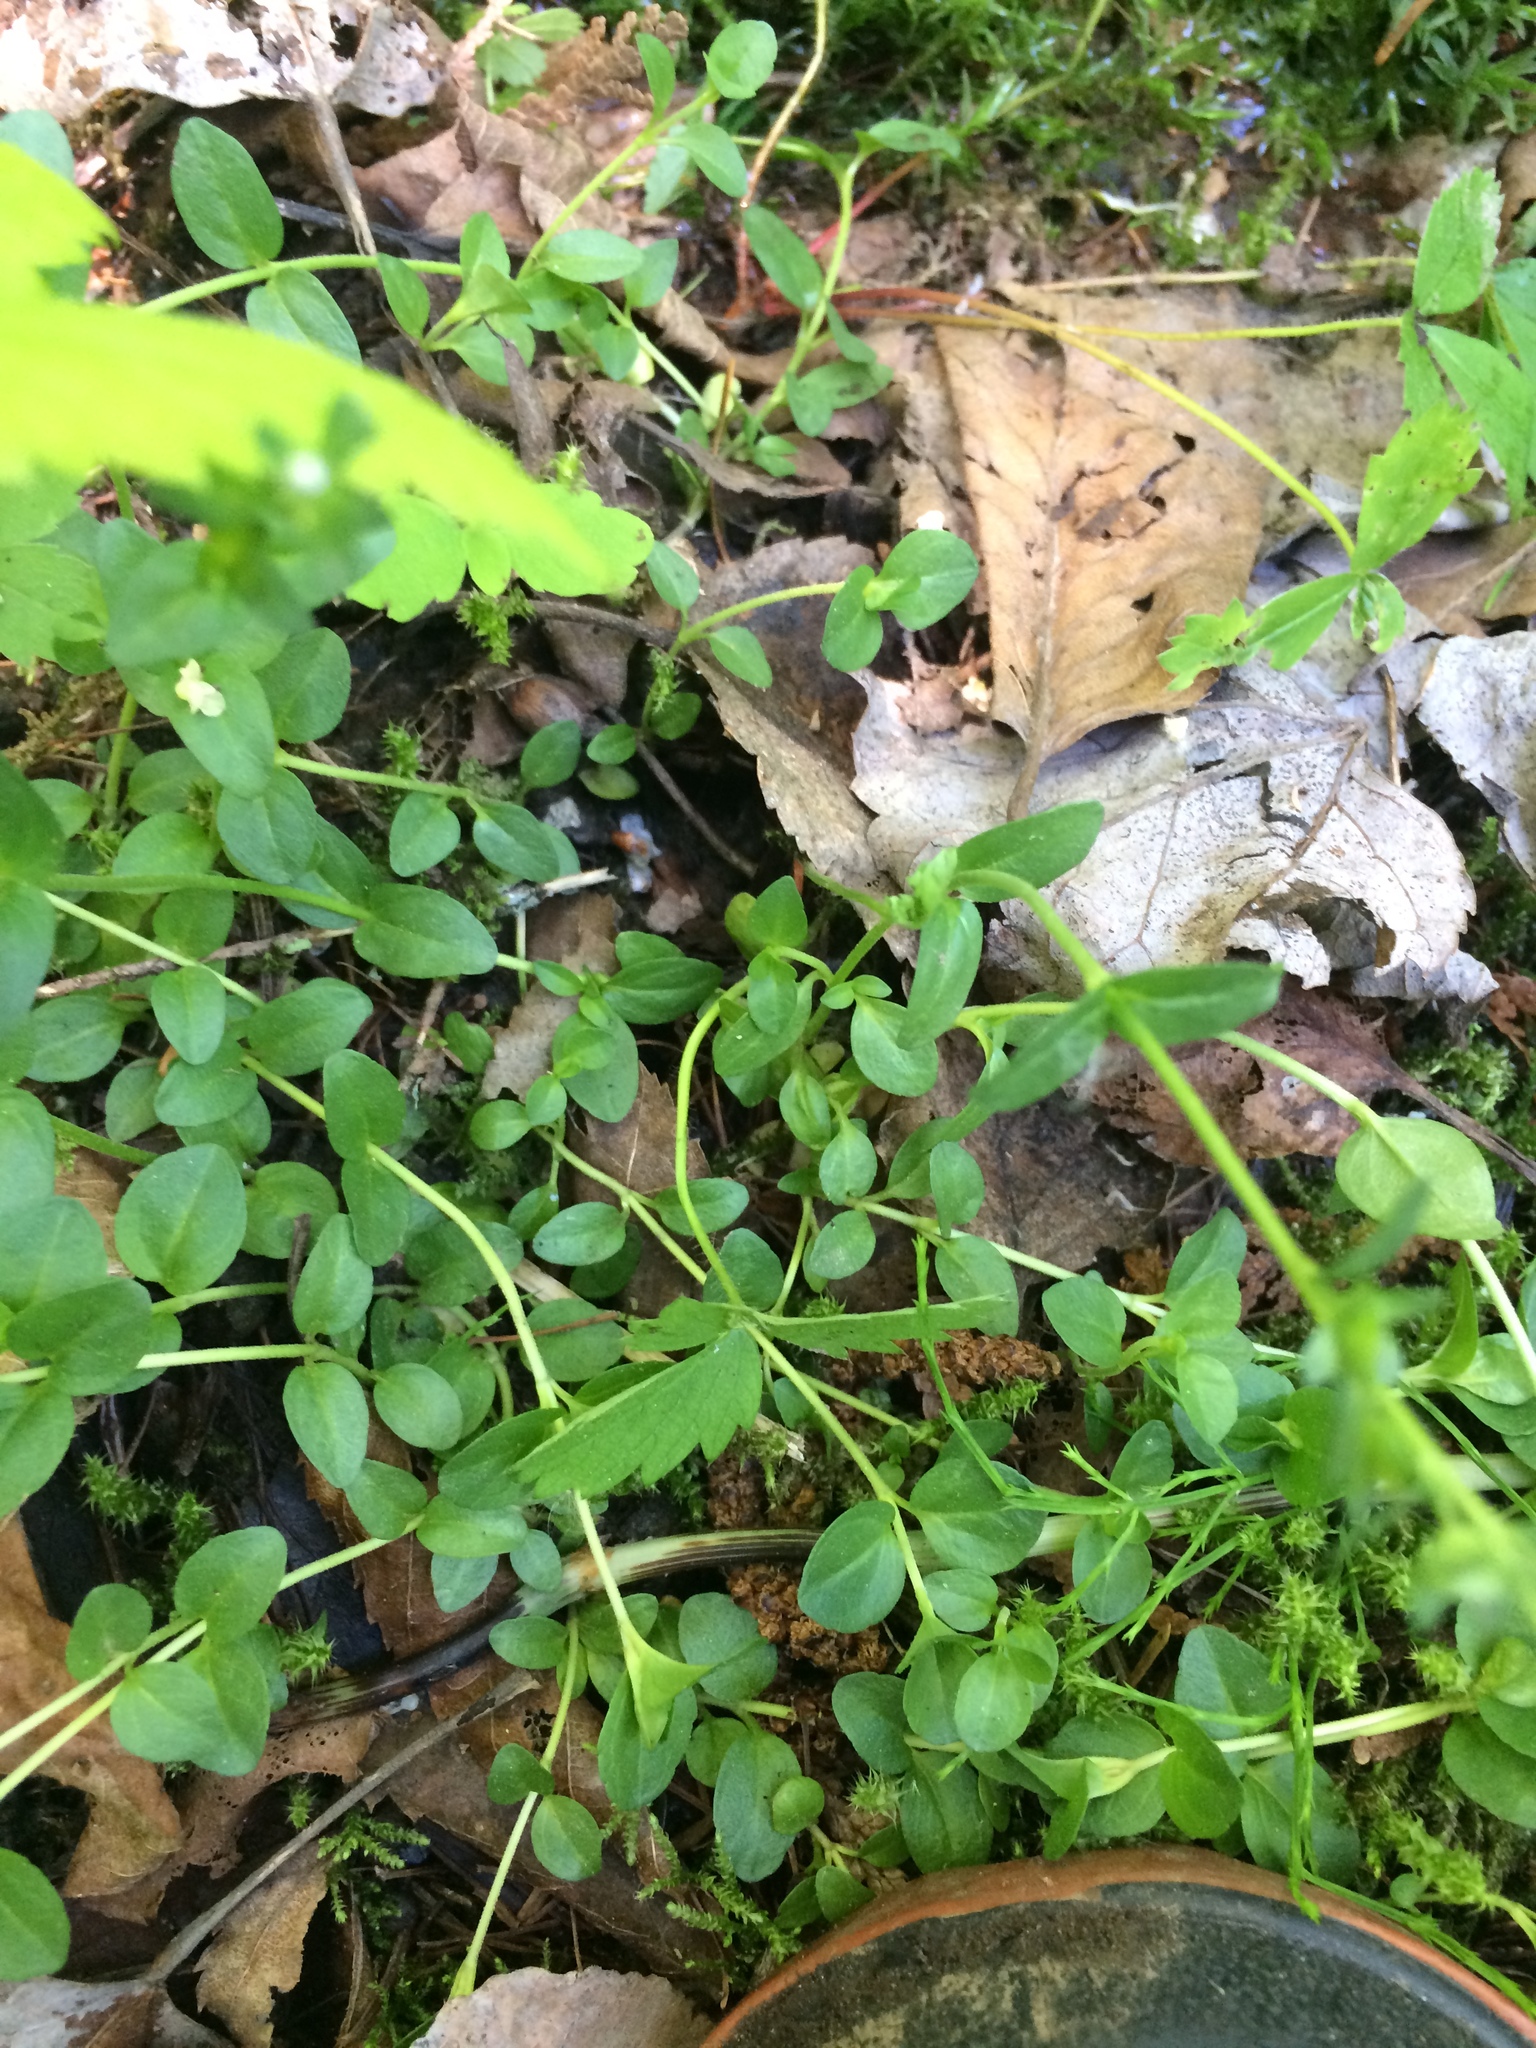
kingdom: Plantae
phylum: Tracheophyta
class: Magnoliopsida
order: Lamiales
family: Plantaginaceae
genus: Veronica
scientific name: Veronica serpyllifolia
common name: Thyme-leaved speedwell
